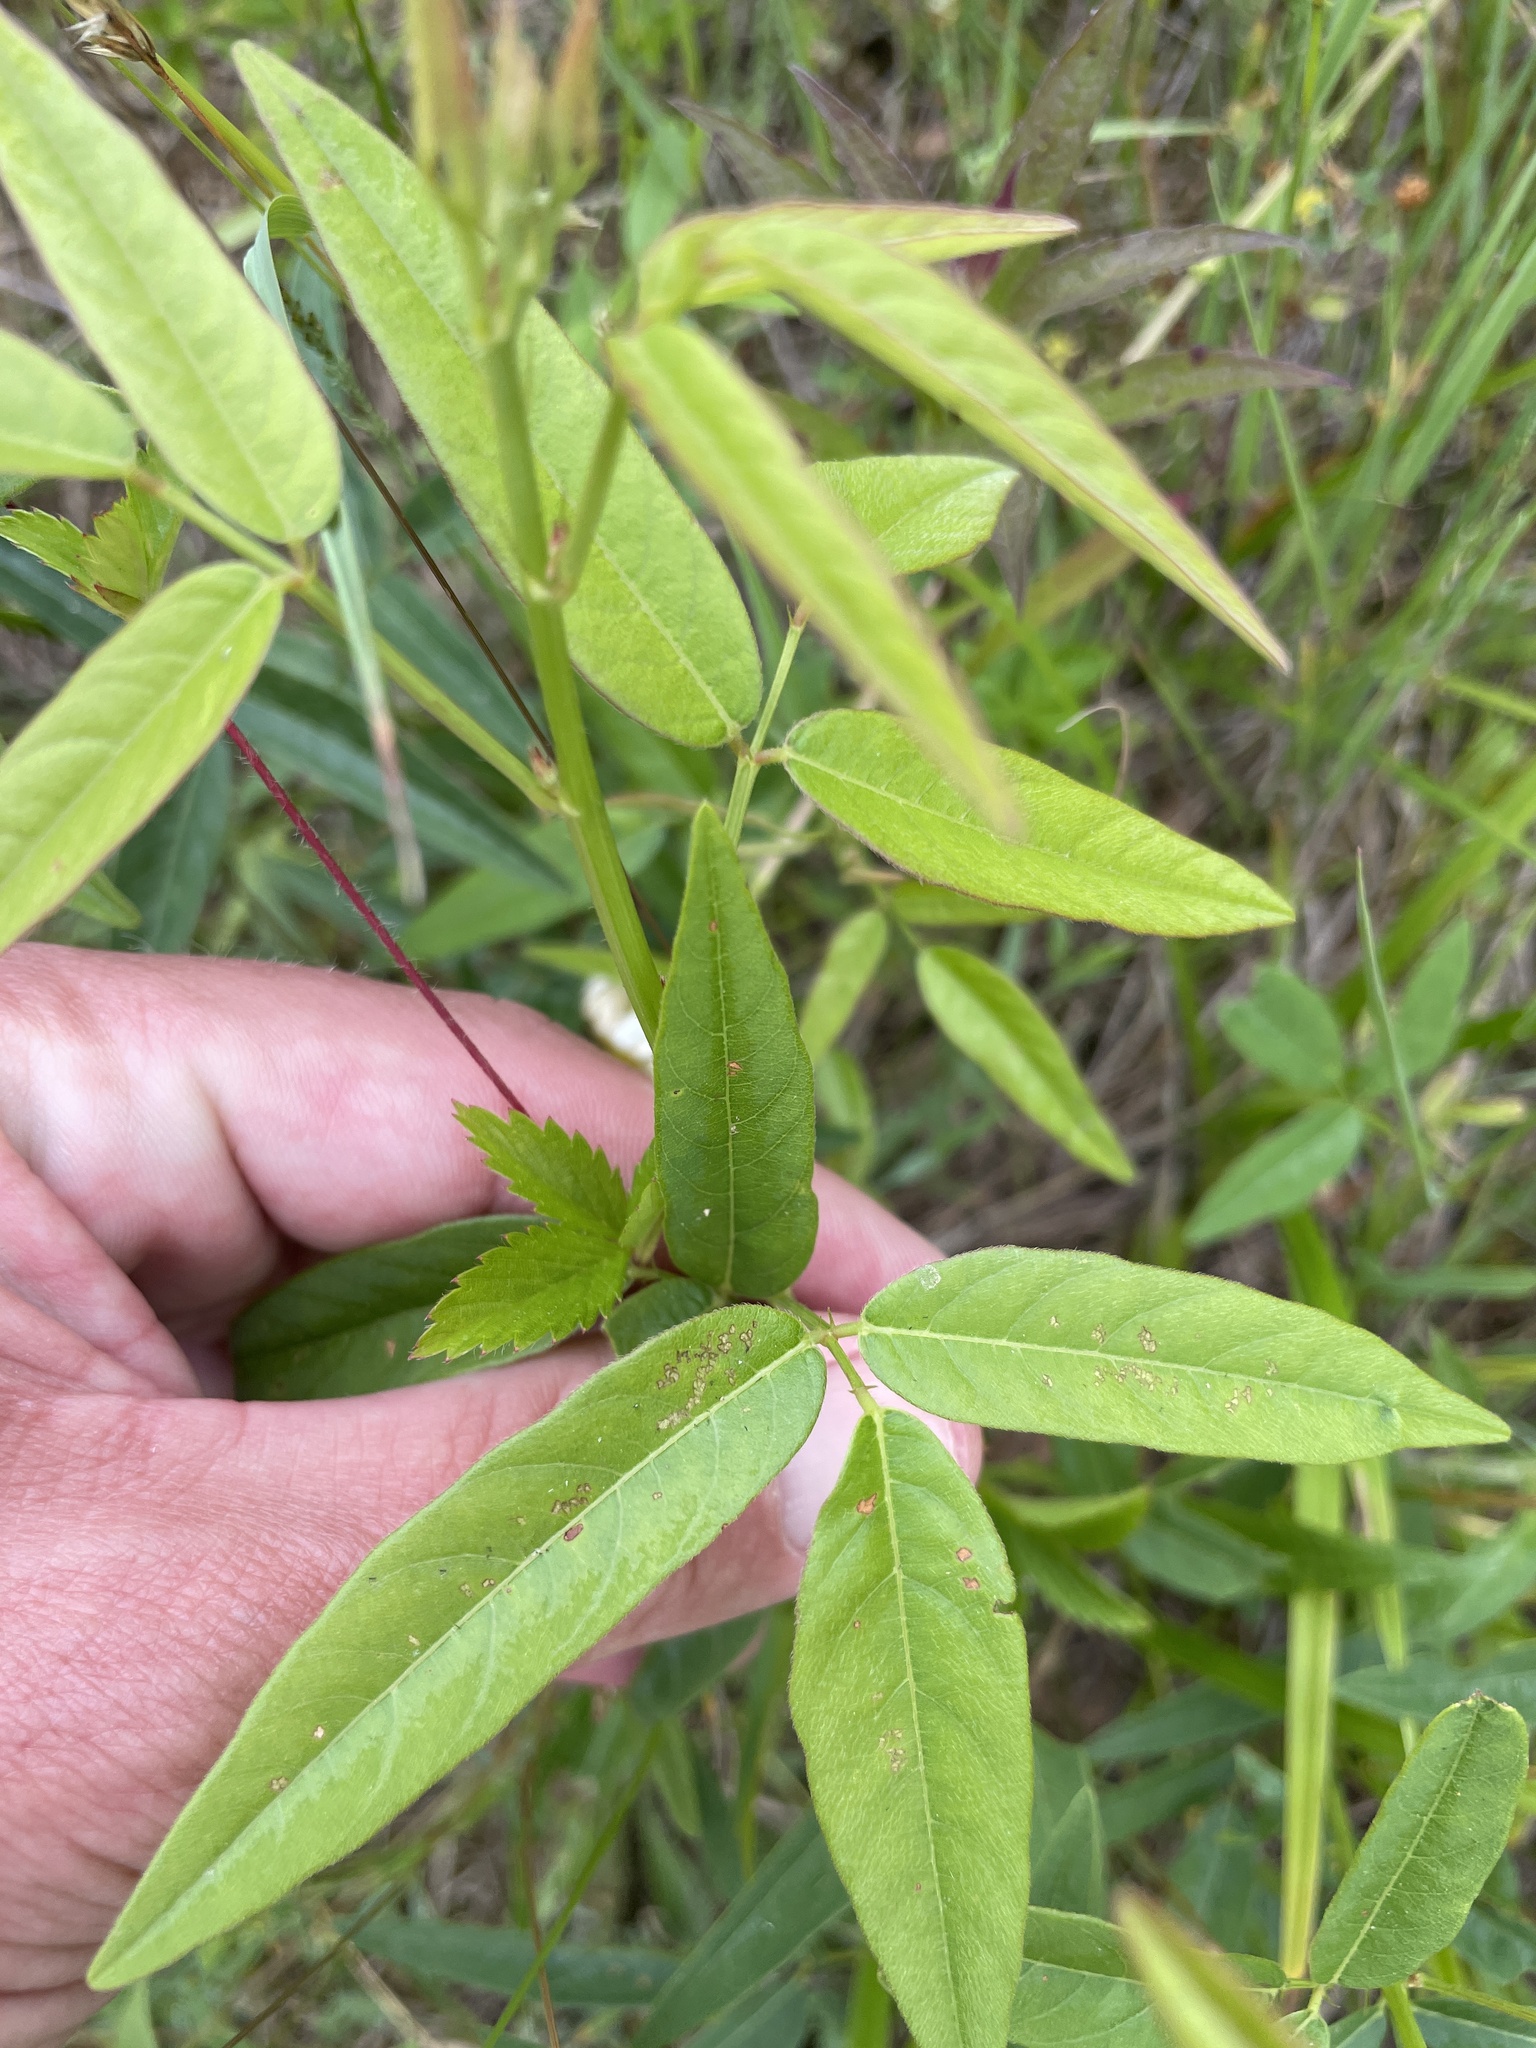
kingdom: Plantae
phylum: Tracheophyta
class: Magnoliopsida
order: Fabales
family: Fabaceae
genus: Desmodium
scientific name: Desmodium paniculatum
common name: Panicled tick-clover
